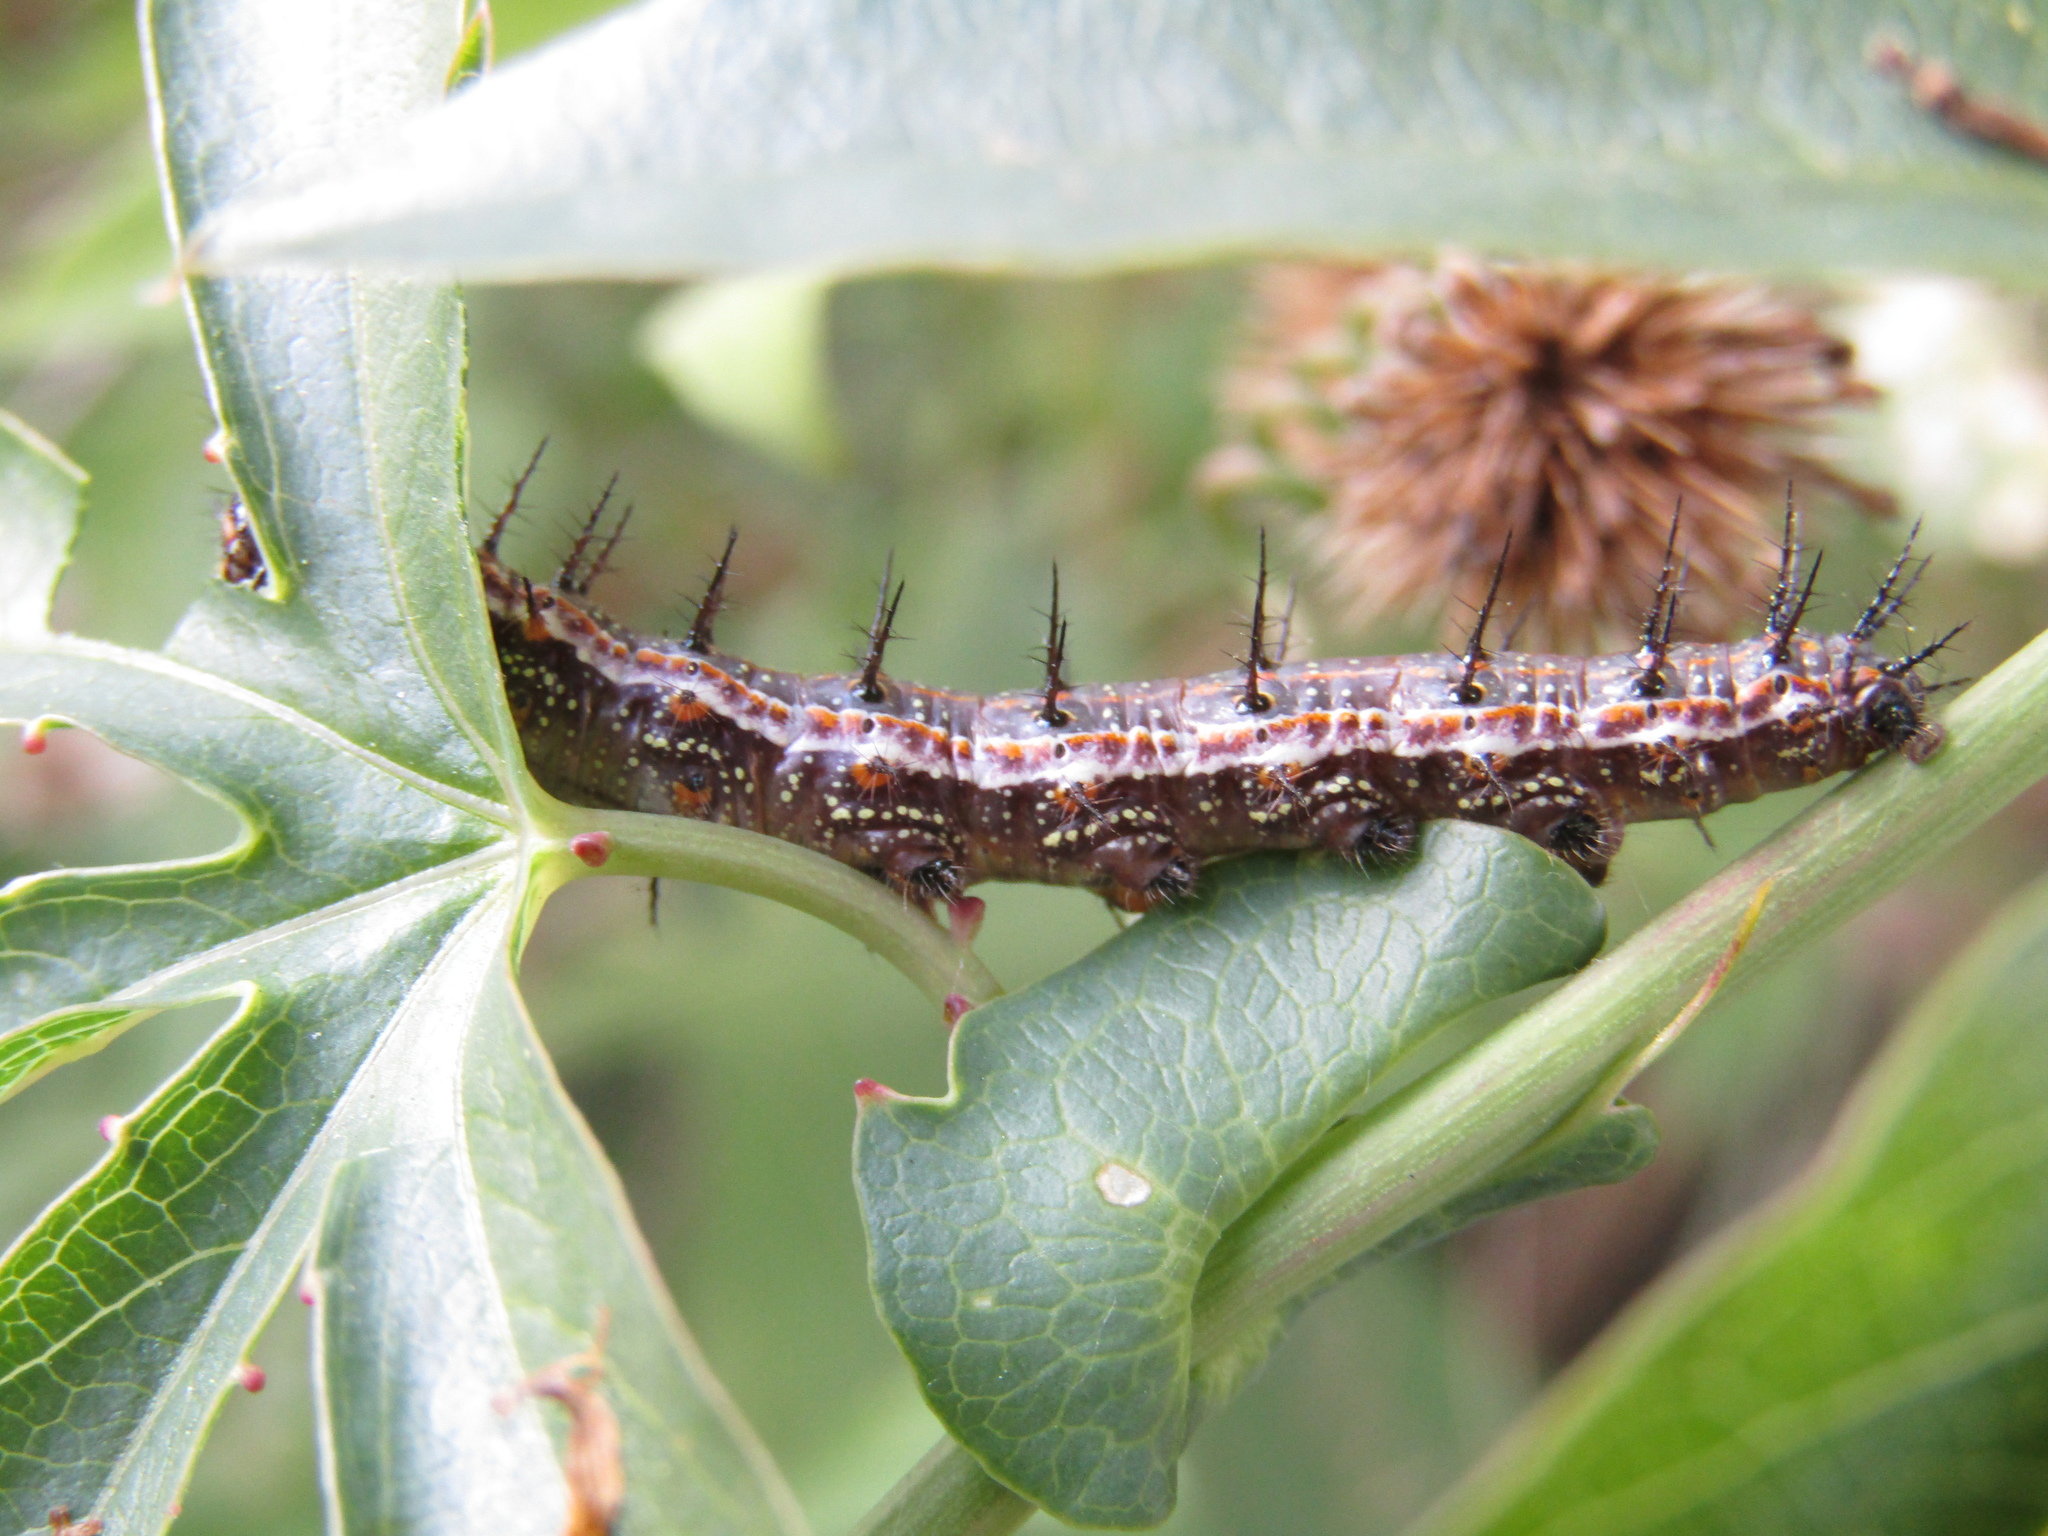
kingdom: Animalia
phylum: Arthropoda
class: Insecta
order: Lepidoptera
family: Nymphalidae
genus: Dione
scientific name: Dione vanillae
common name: Gulf fritillary
